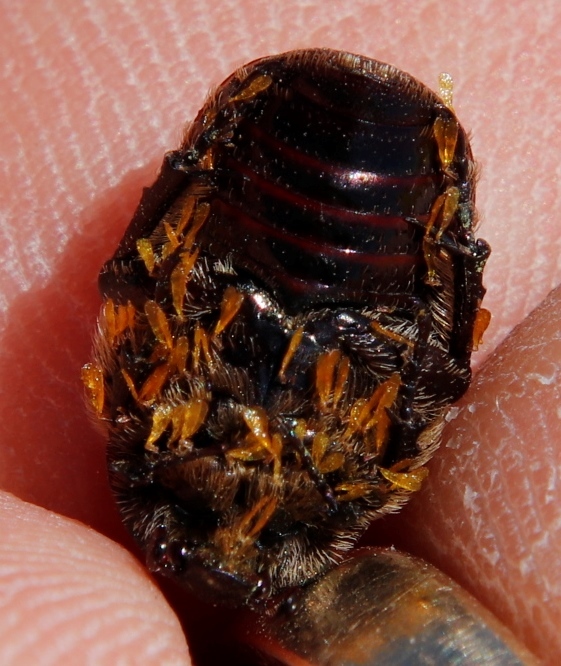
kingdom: Animalia
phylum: Arthropoda
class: Insecta
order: Coleoptera
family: Scarabaeidae
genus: Atrichelaphinis
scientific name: Atrichelaphinis tigrina
